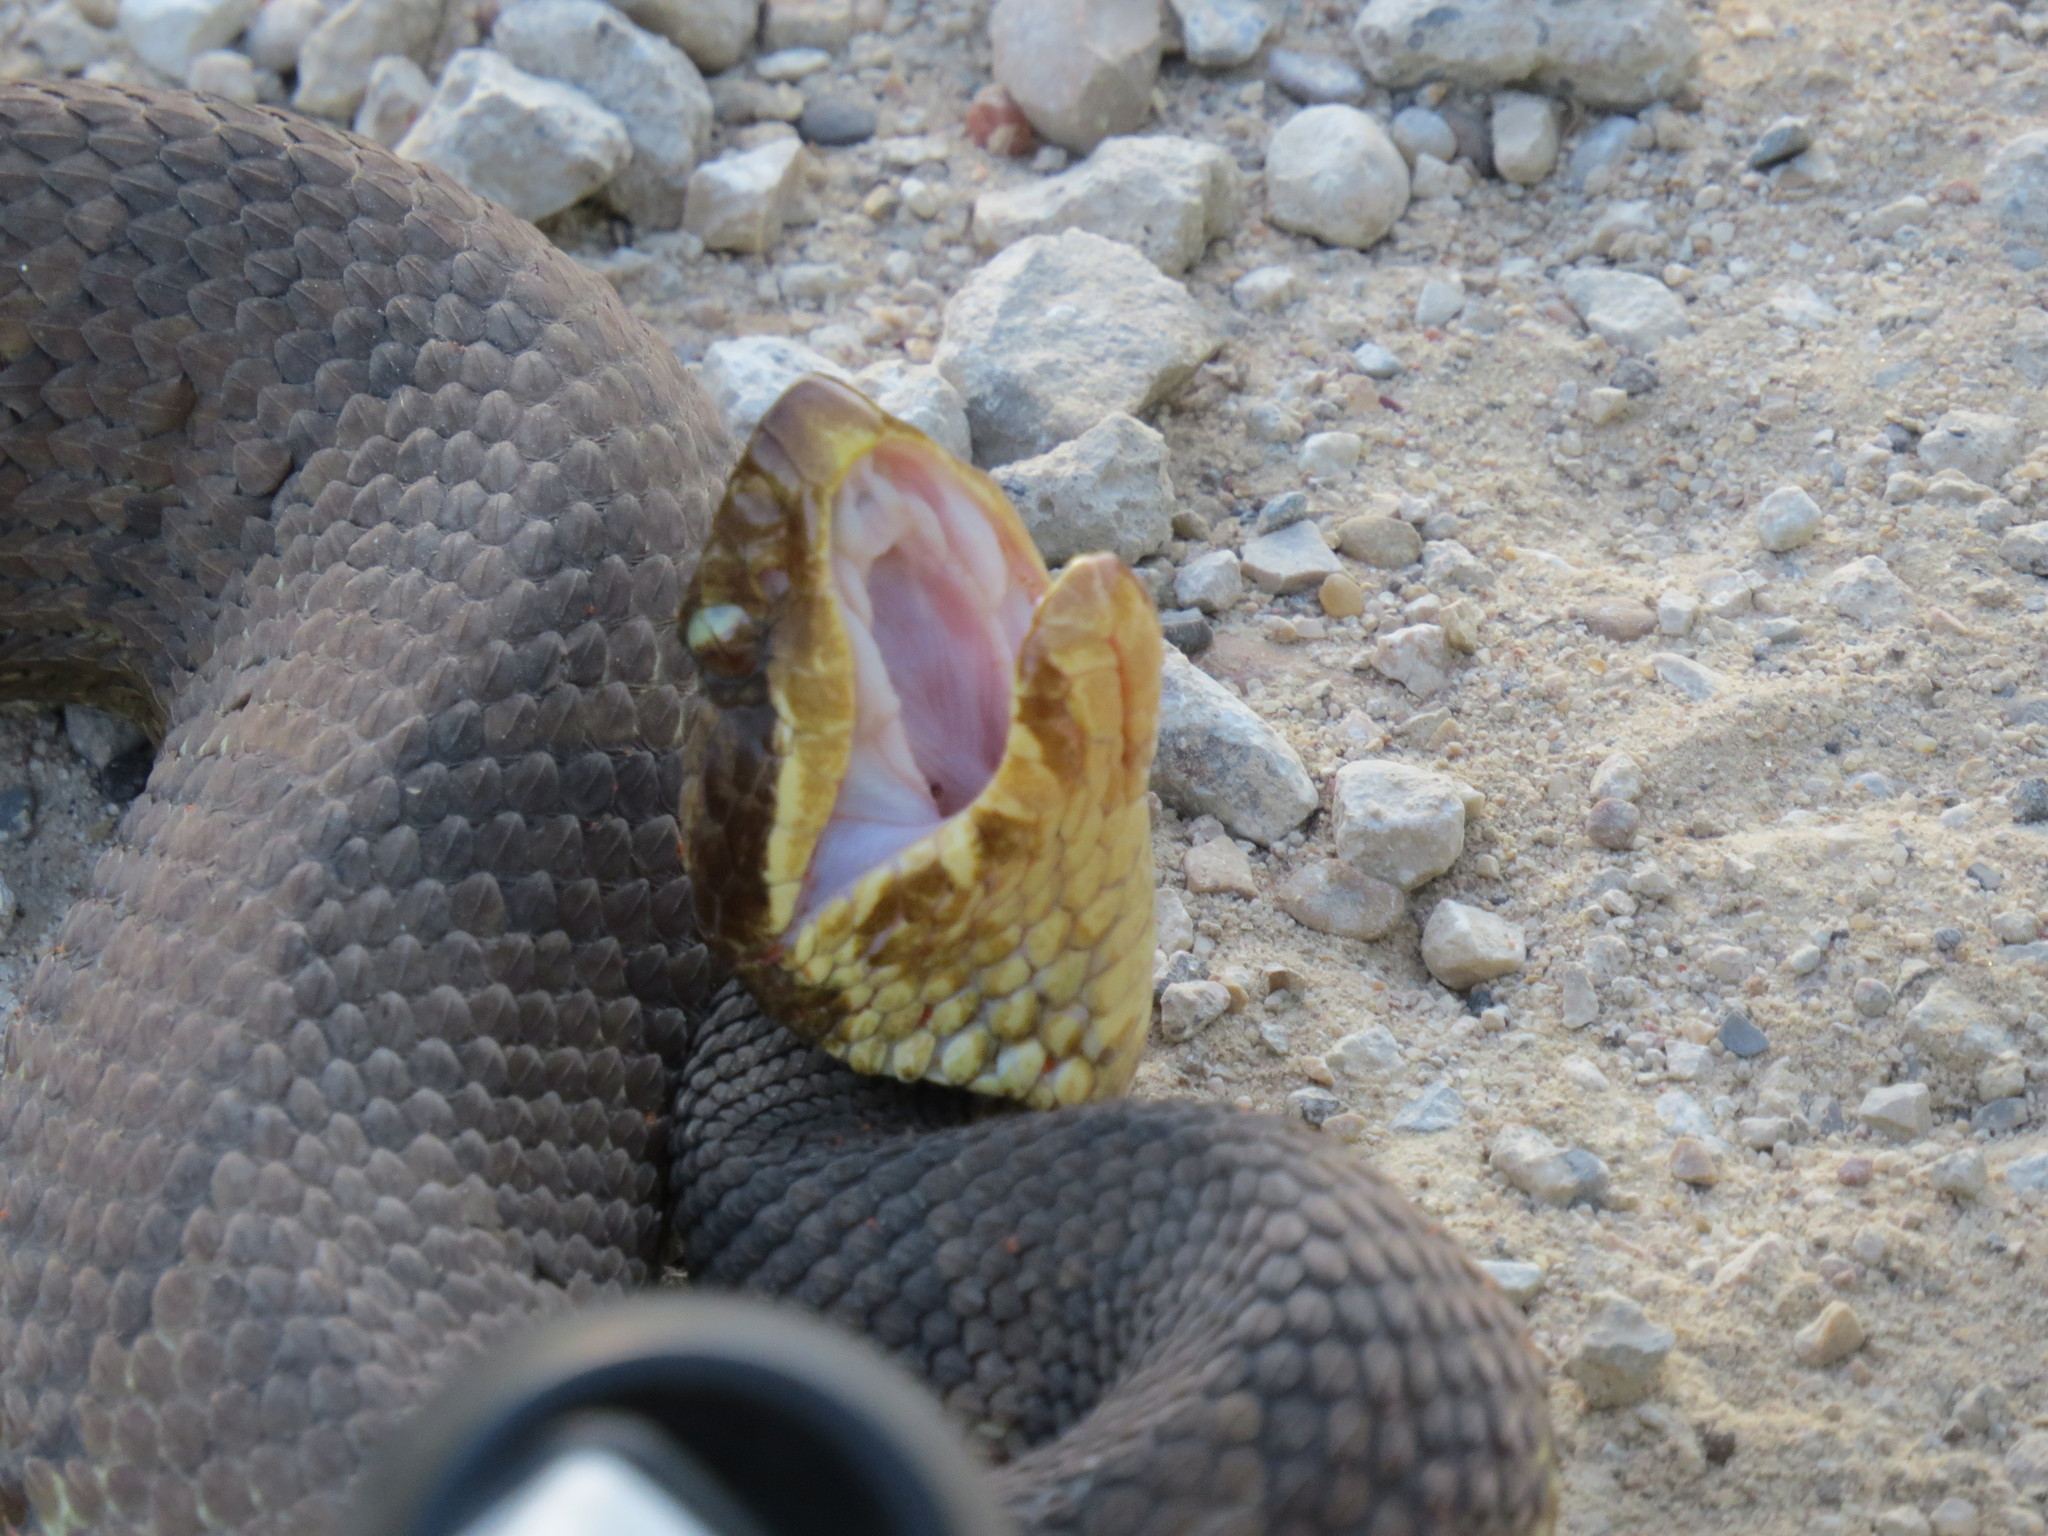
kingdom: Animalia
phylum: Chordata
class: Squamata
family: Viperidae
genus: Agkistrodon
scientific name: Agkistrodon piscivorus
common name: Cottonmouth
